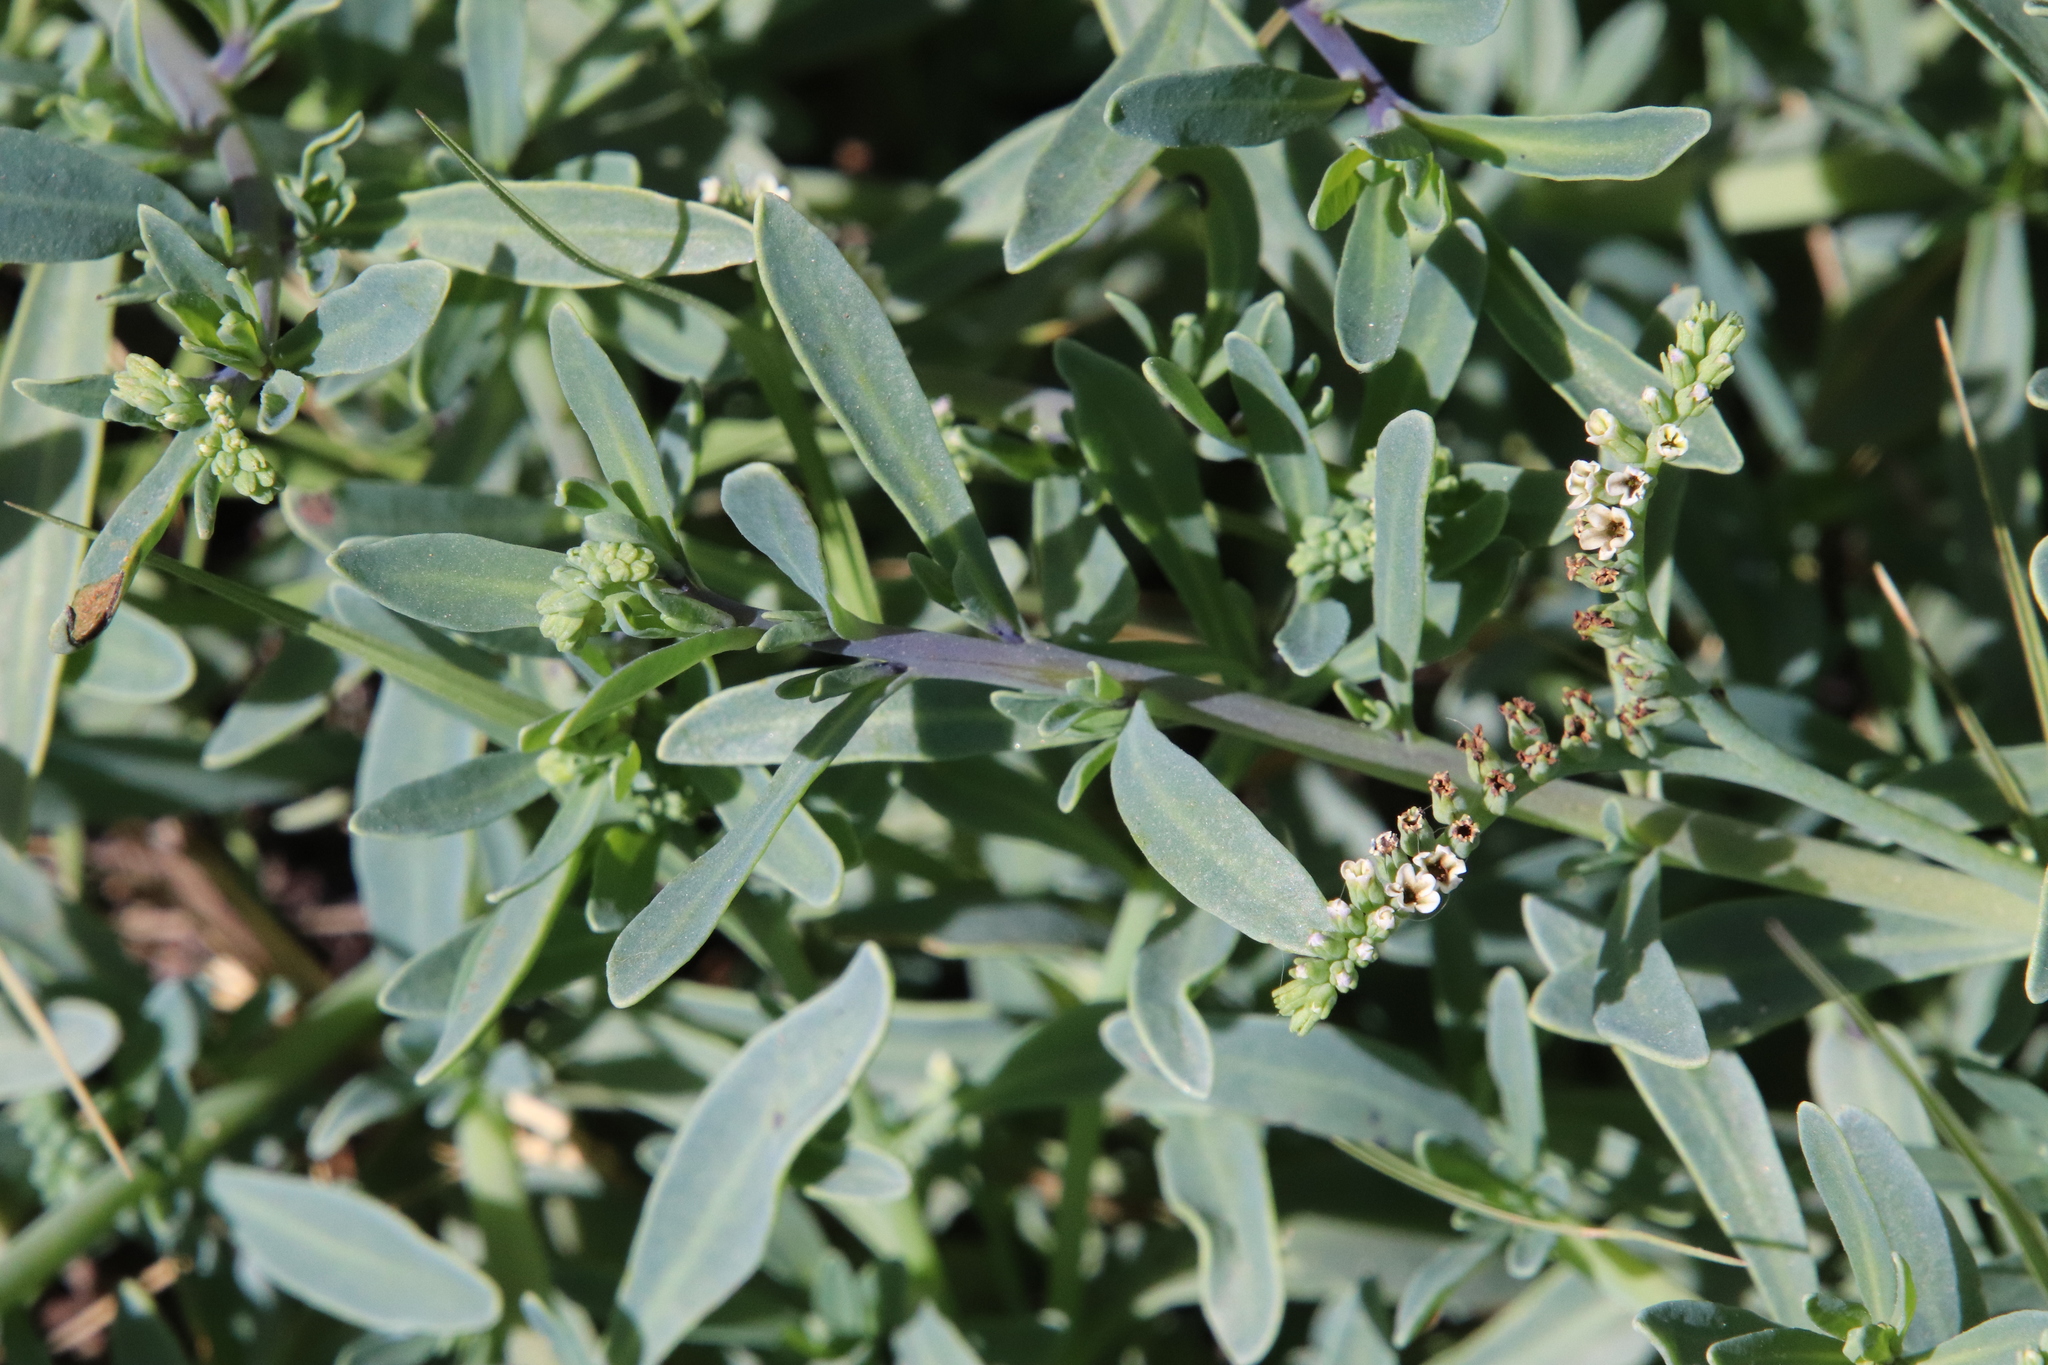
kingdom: Plantae
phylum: Tracheophyta
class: Magnoliopsida
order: Boraginales
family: Heliotropiaceae
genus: Heliotropium
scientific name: Heliotropium curassavicum
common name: Seaside heliotrope
